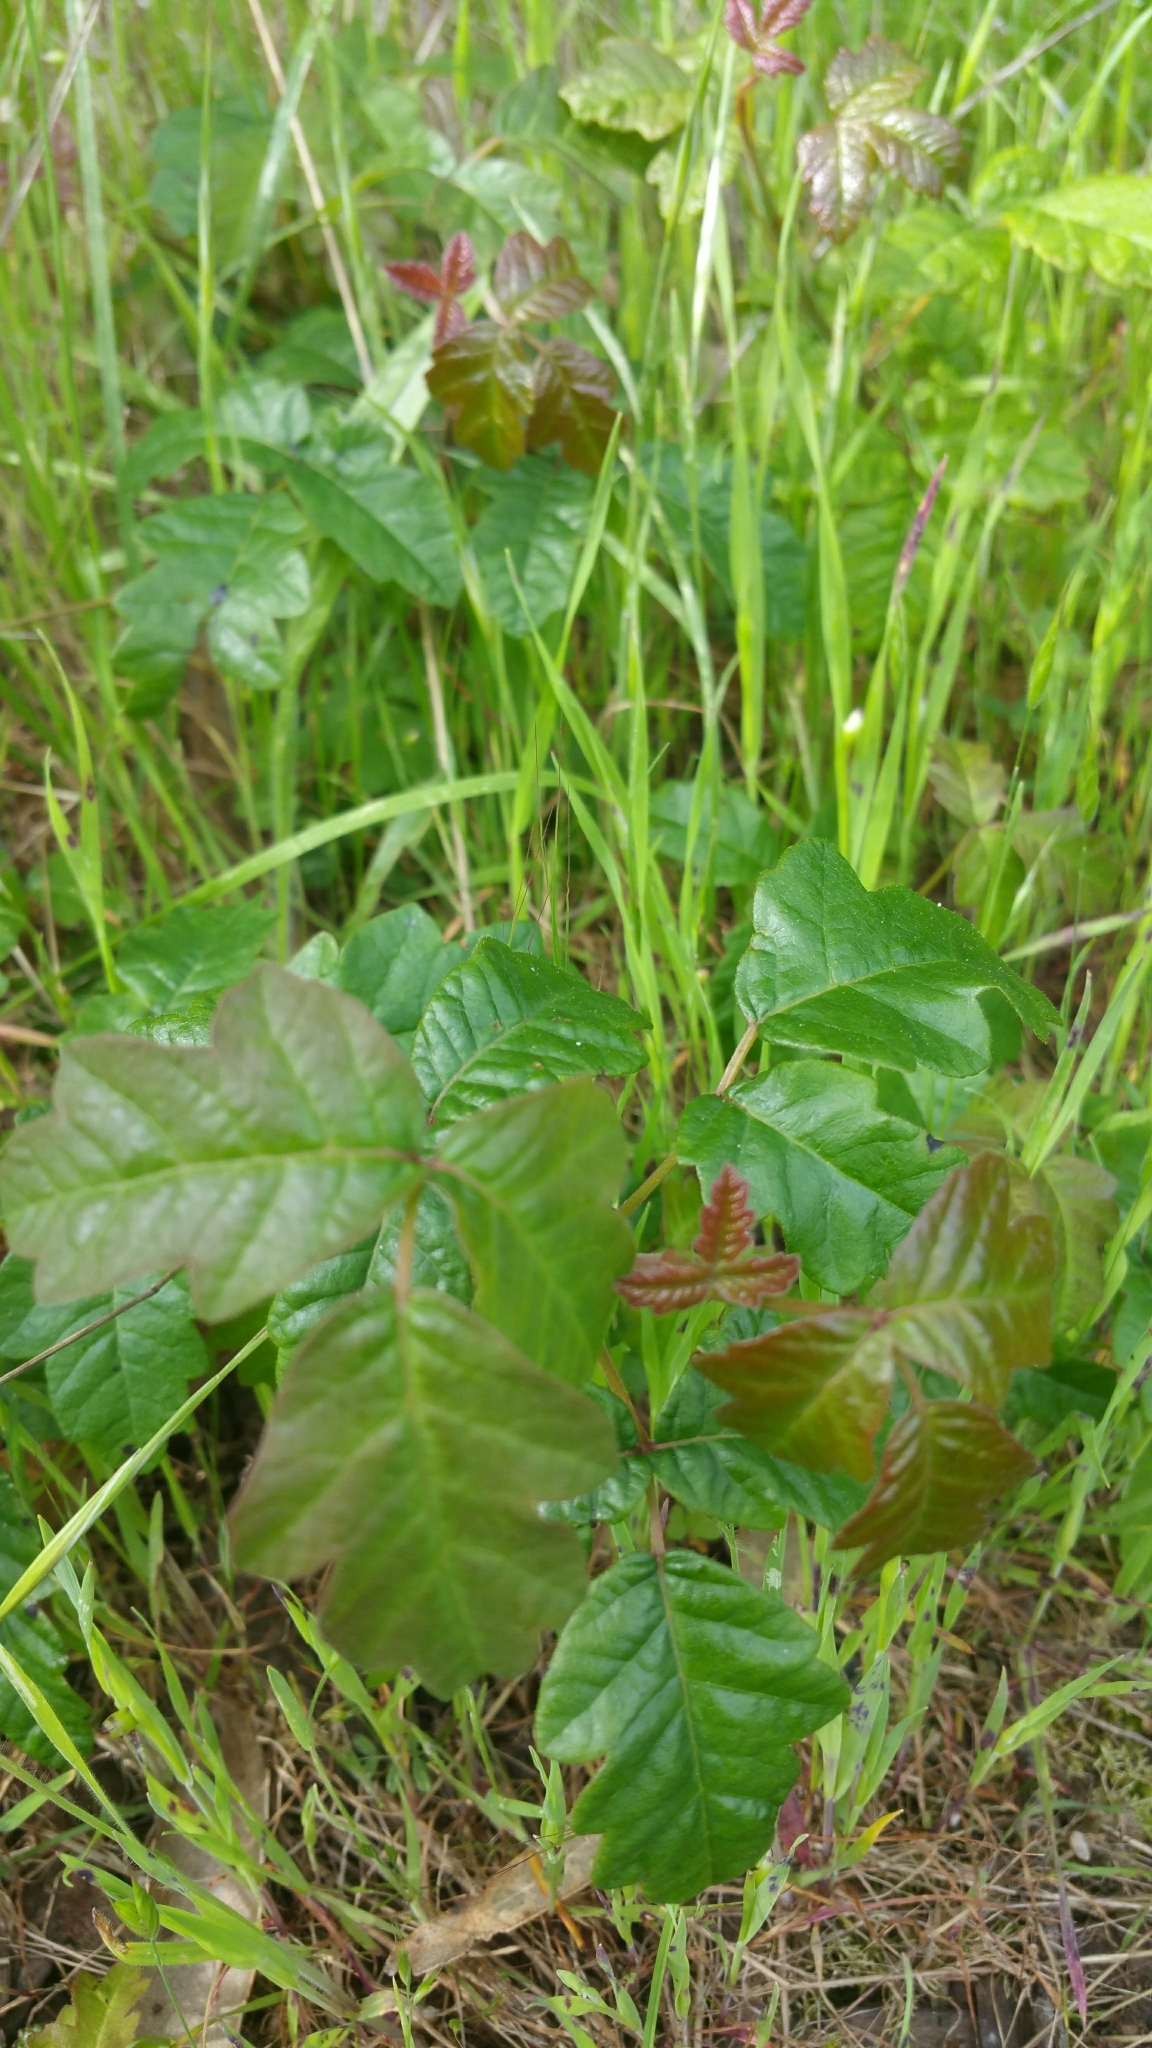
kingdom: Plantae
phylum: Tracheophyta
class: Magnoliopsida
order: Sapindales
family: Anacardiaceae
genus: Toxicodendron
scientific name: Toxicodendron diversilobum
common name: Pacific poison-oak
